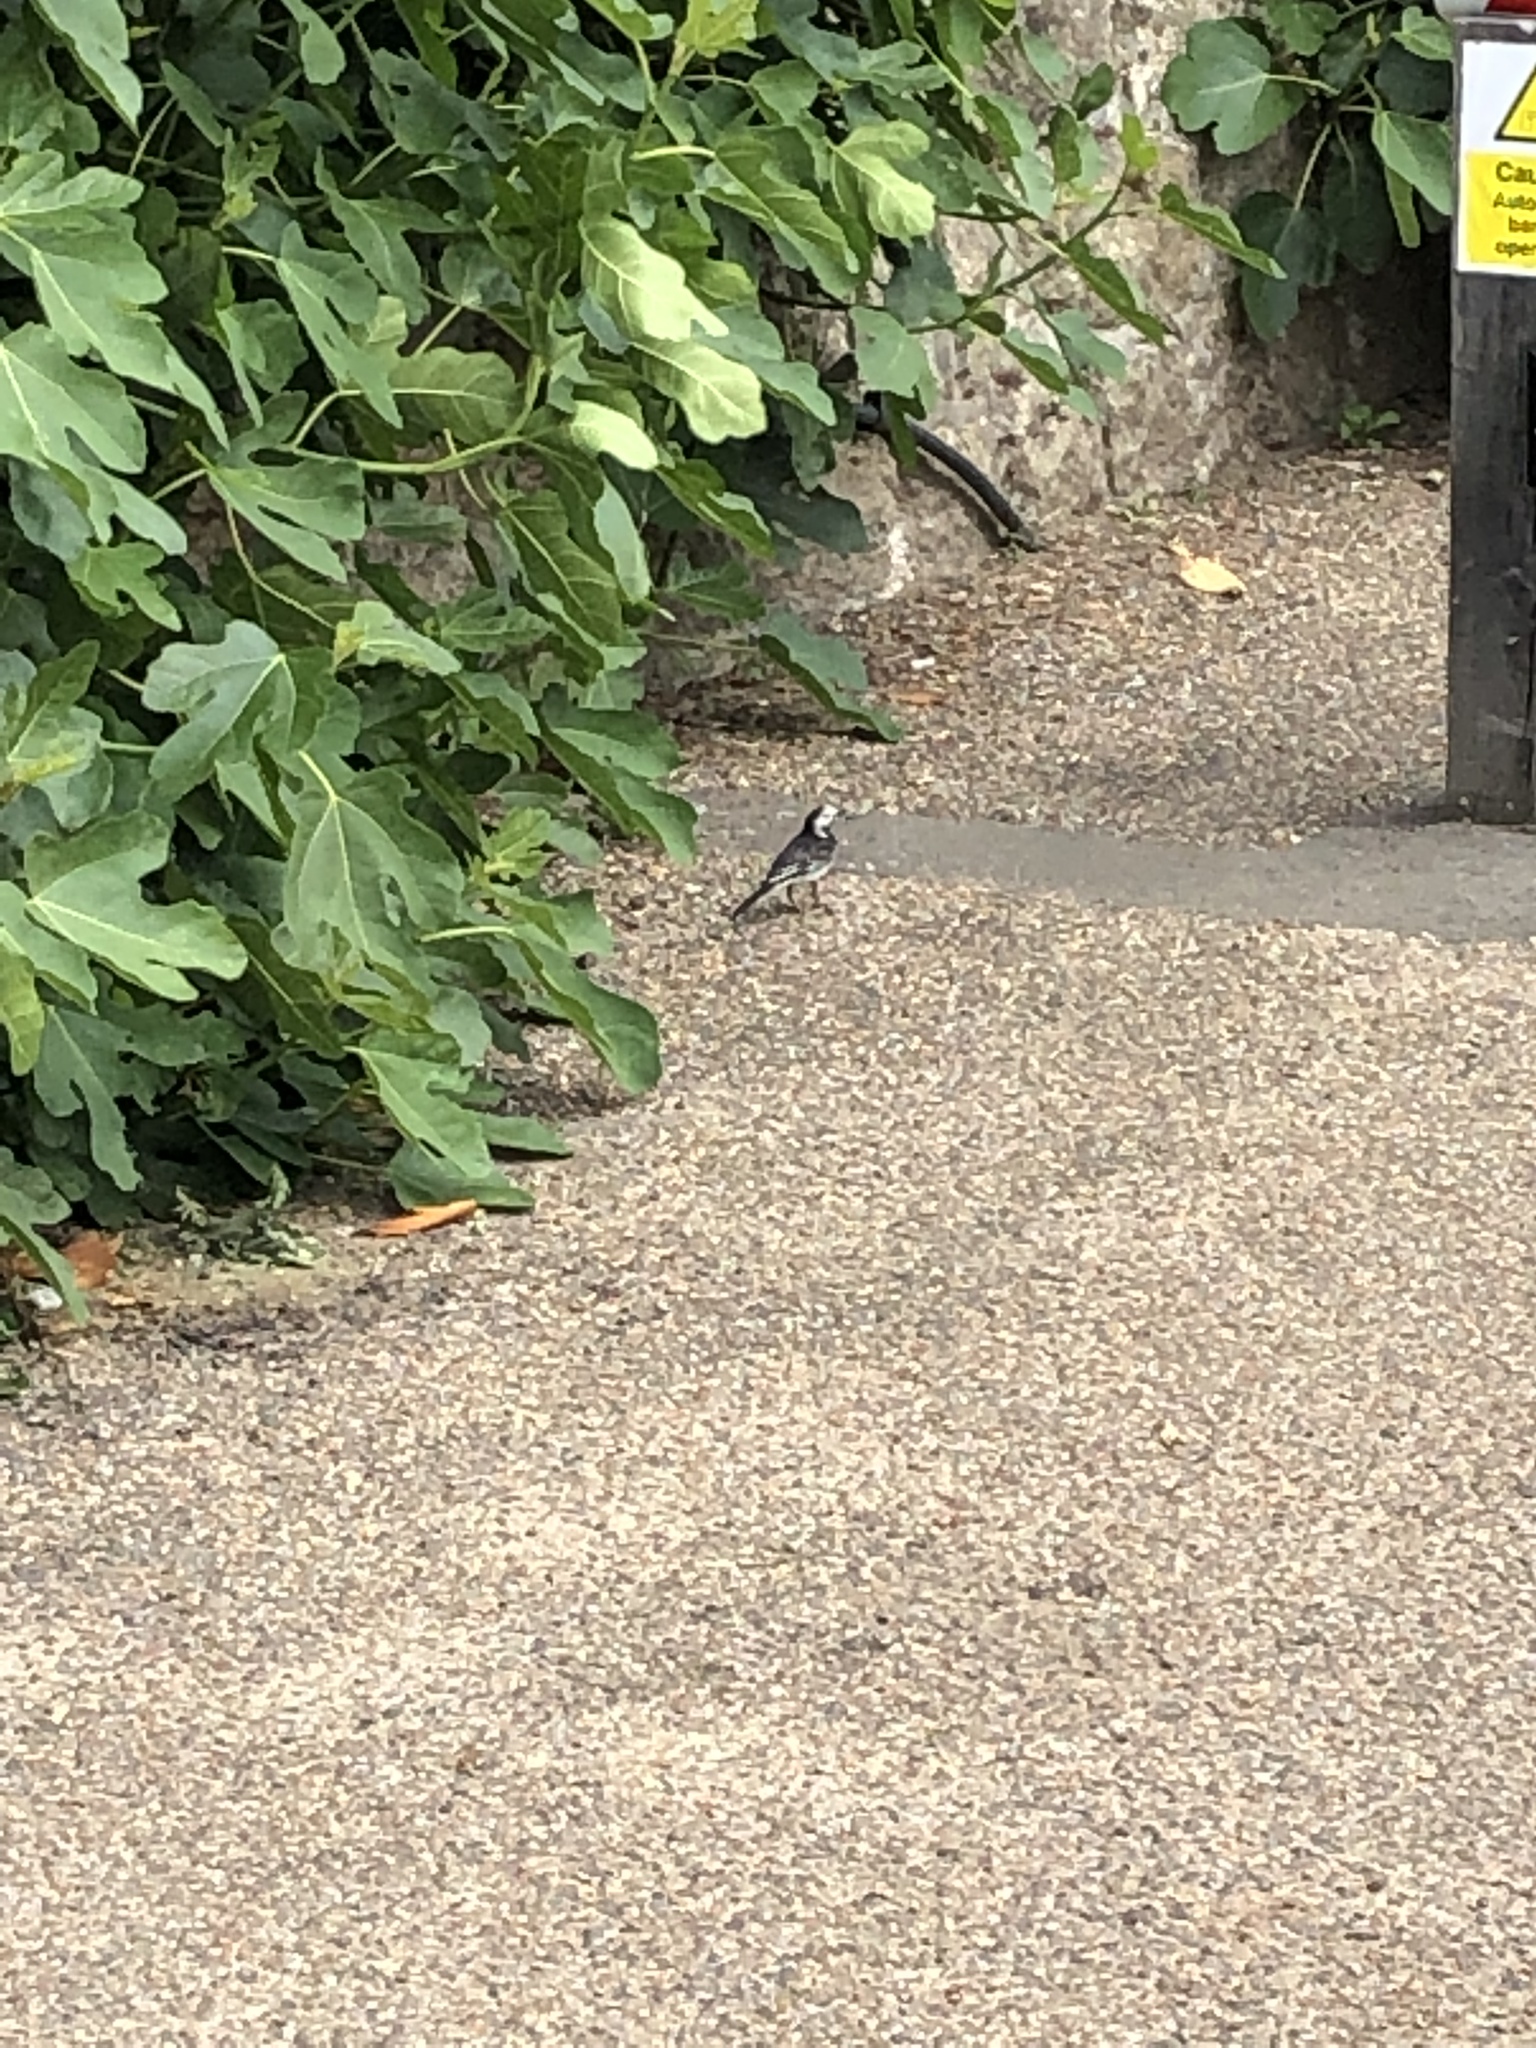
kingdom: Animalia
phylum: Chordata
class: Aves
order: Passeriformes
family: Motacillidae
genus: Motacilla
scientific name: Motacilla alba
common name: White wagtail
